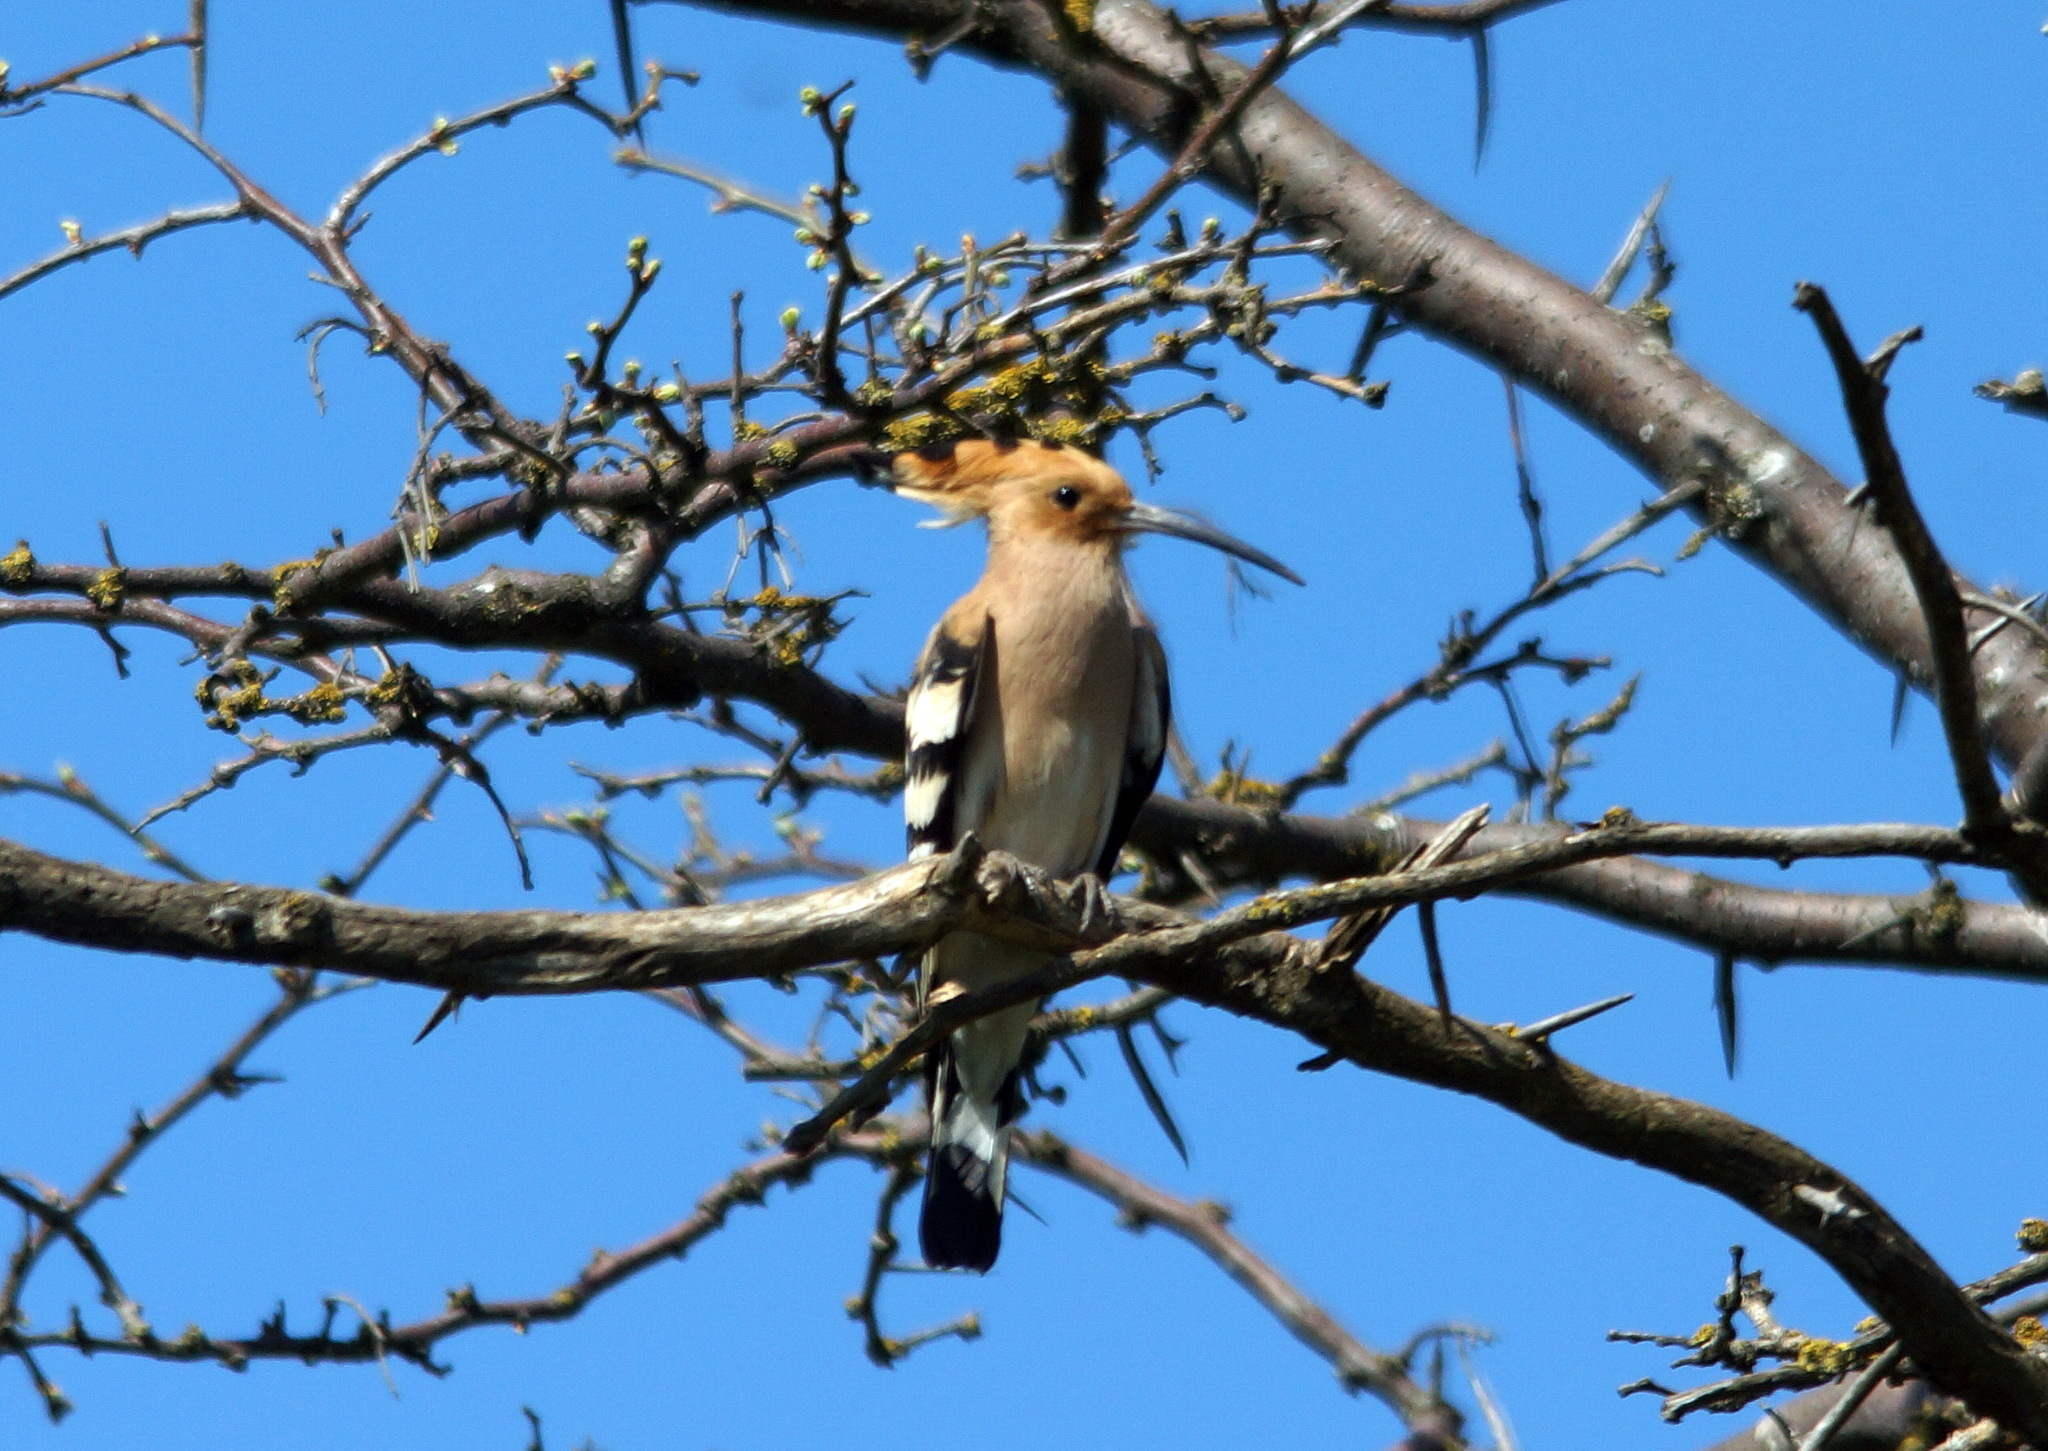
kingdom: Animalia
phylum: Chordata
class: Aves
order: Bucerotiformes
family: Upupidae
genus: Upupa
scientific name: Upupa epops
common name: Eurasian hoopoe
